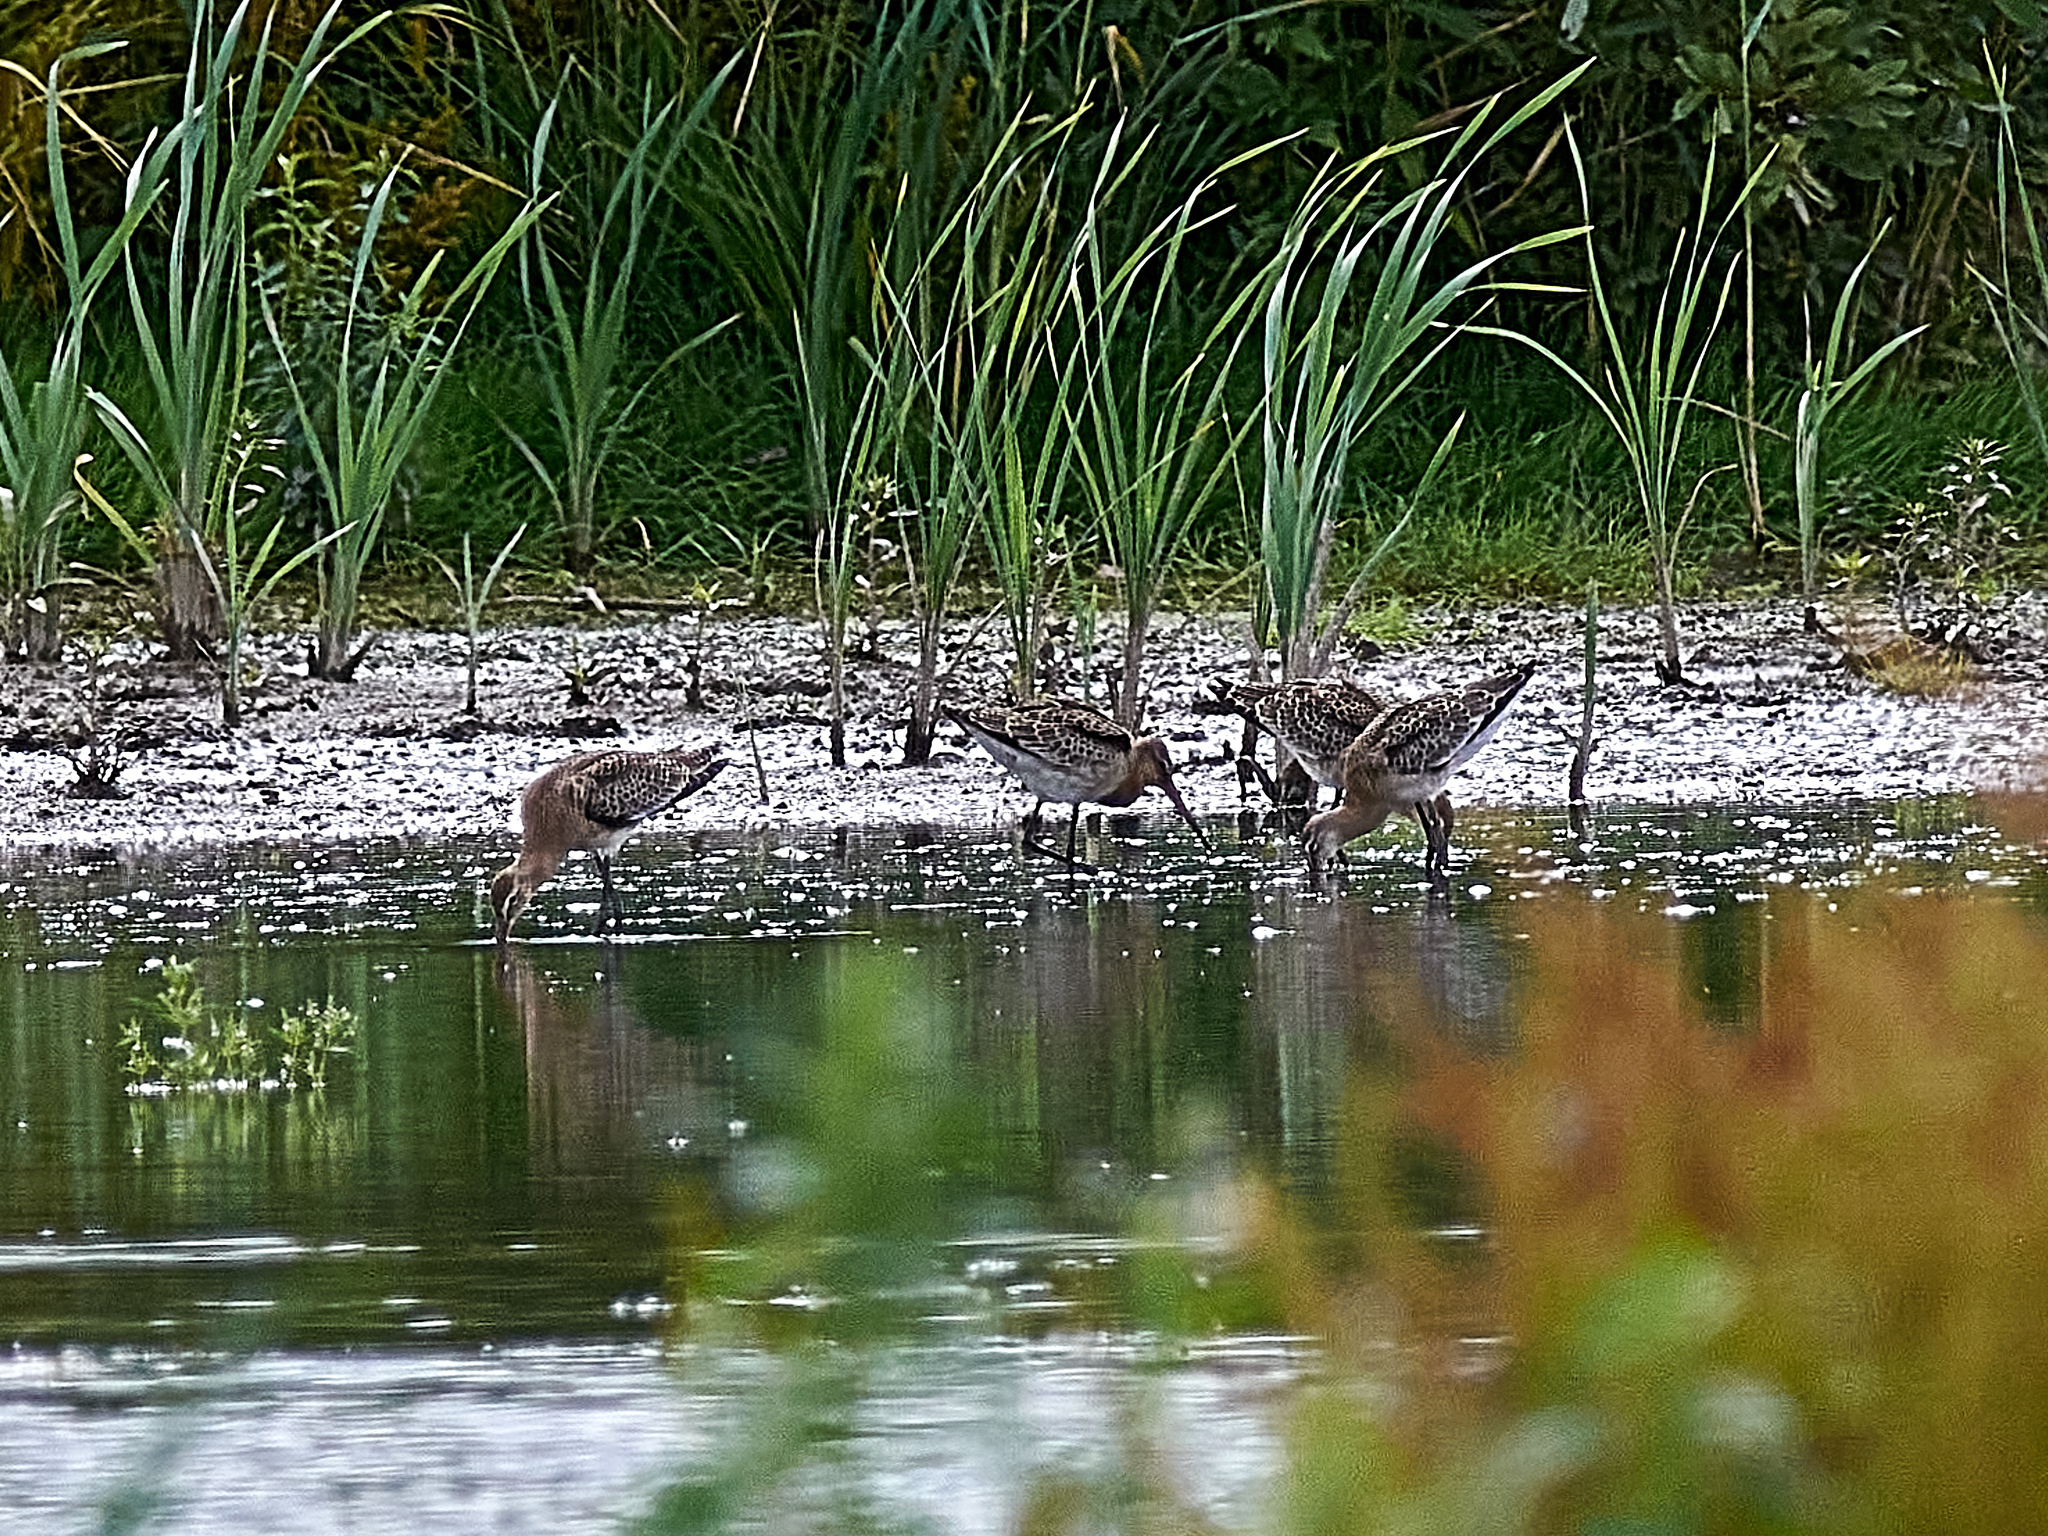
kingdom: Animalia
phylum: Chordata
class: Aves
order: Charadriiformes
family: Scolopacidae
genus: Limosa
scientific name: Limosa limosa
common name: Black-tailed godwit
